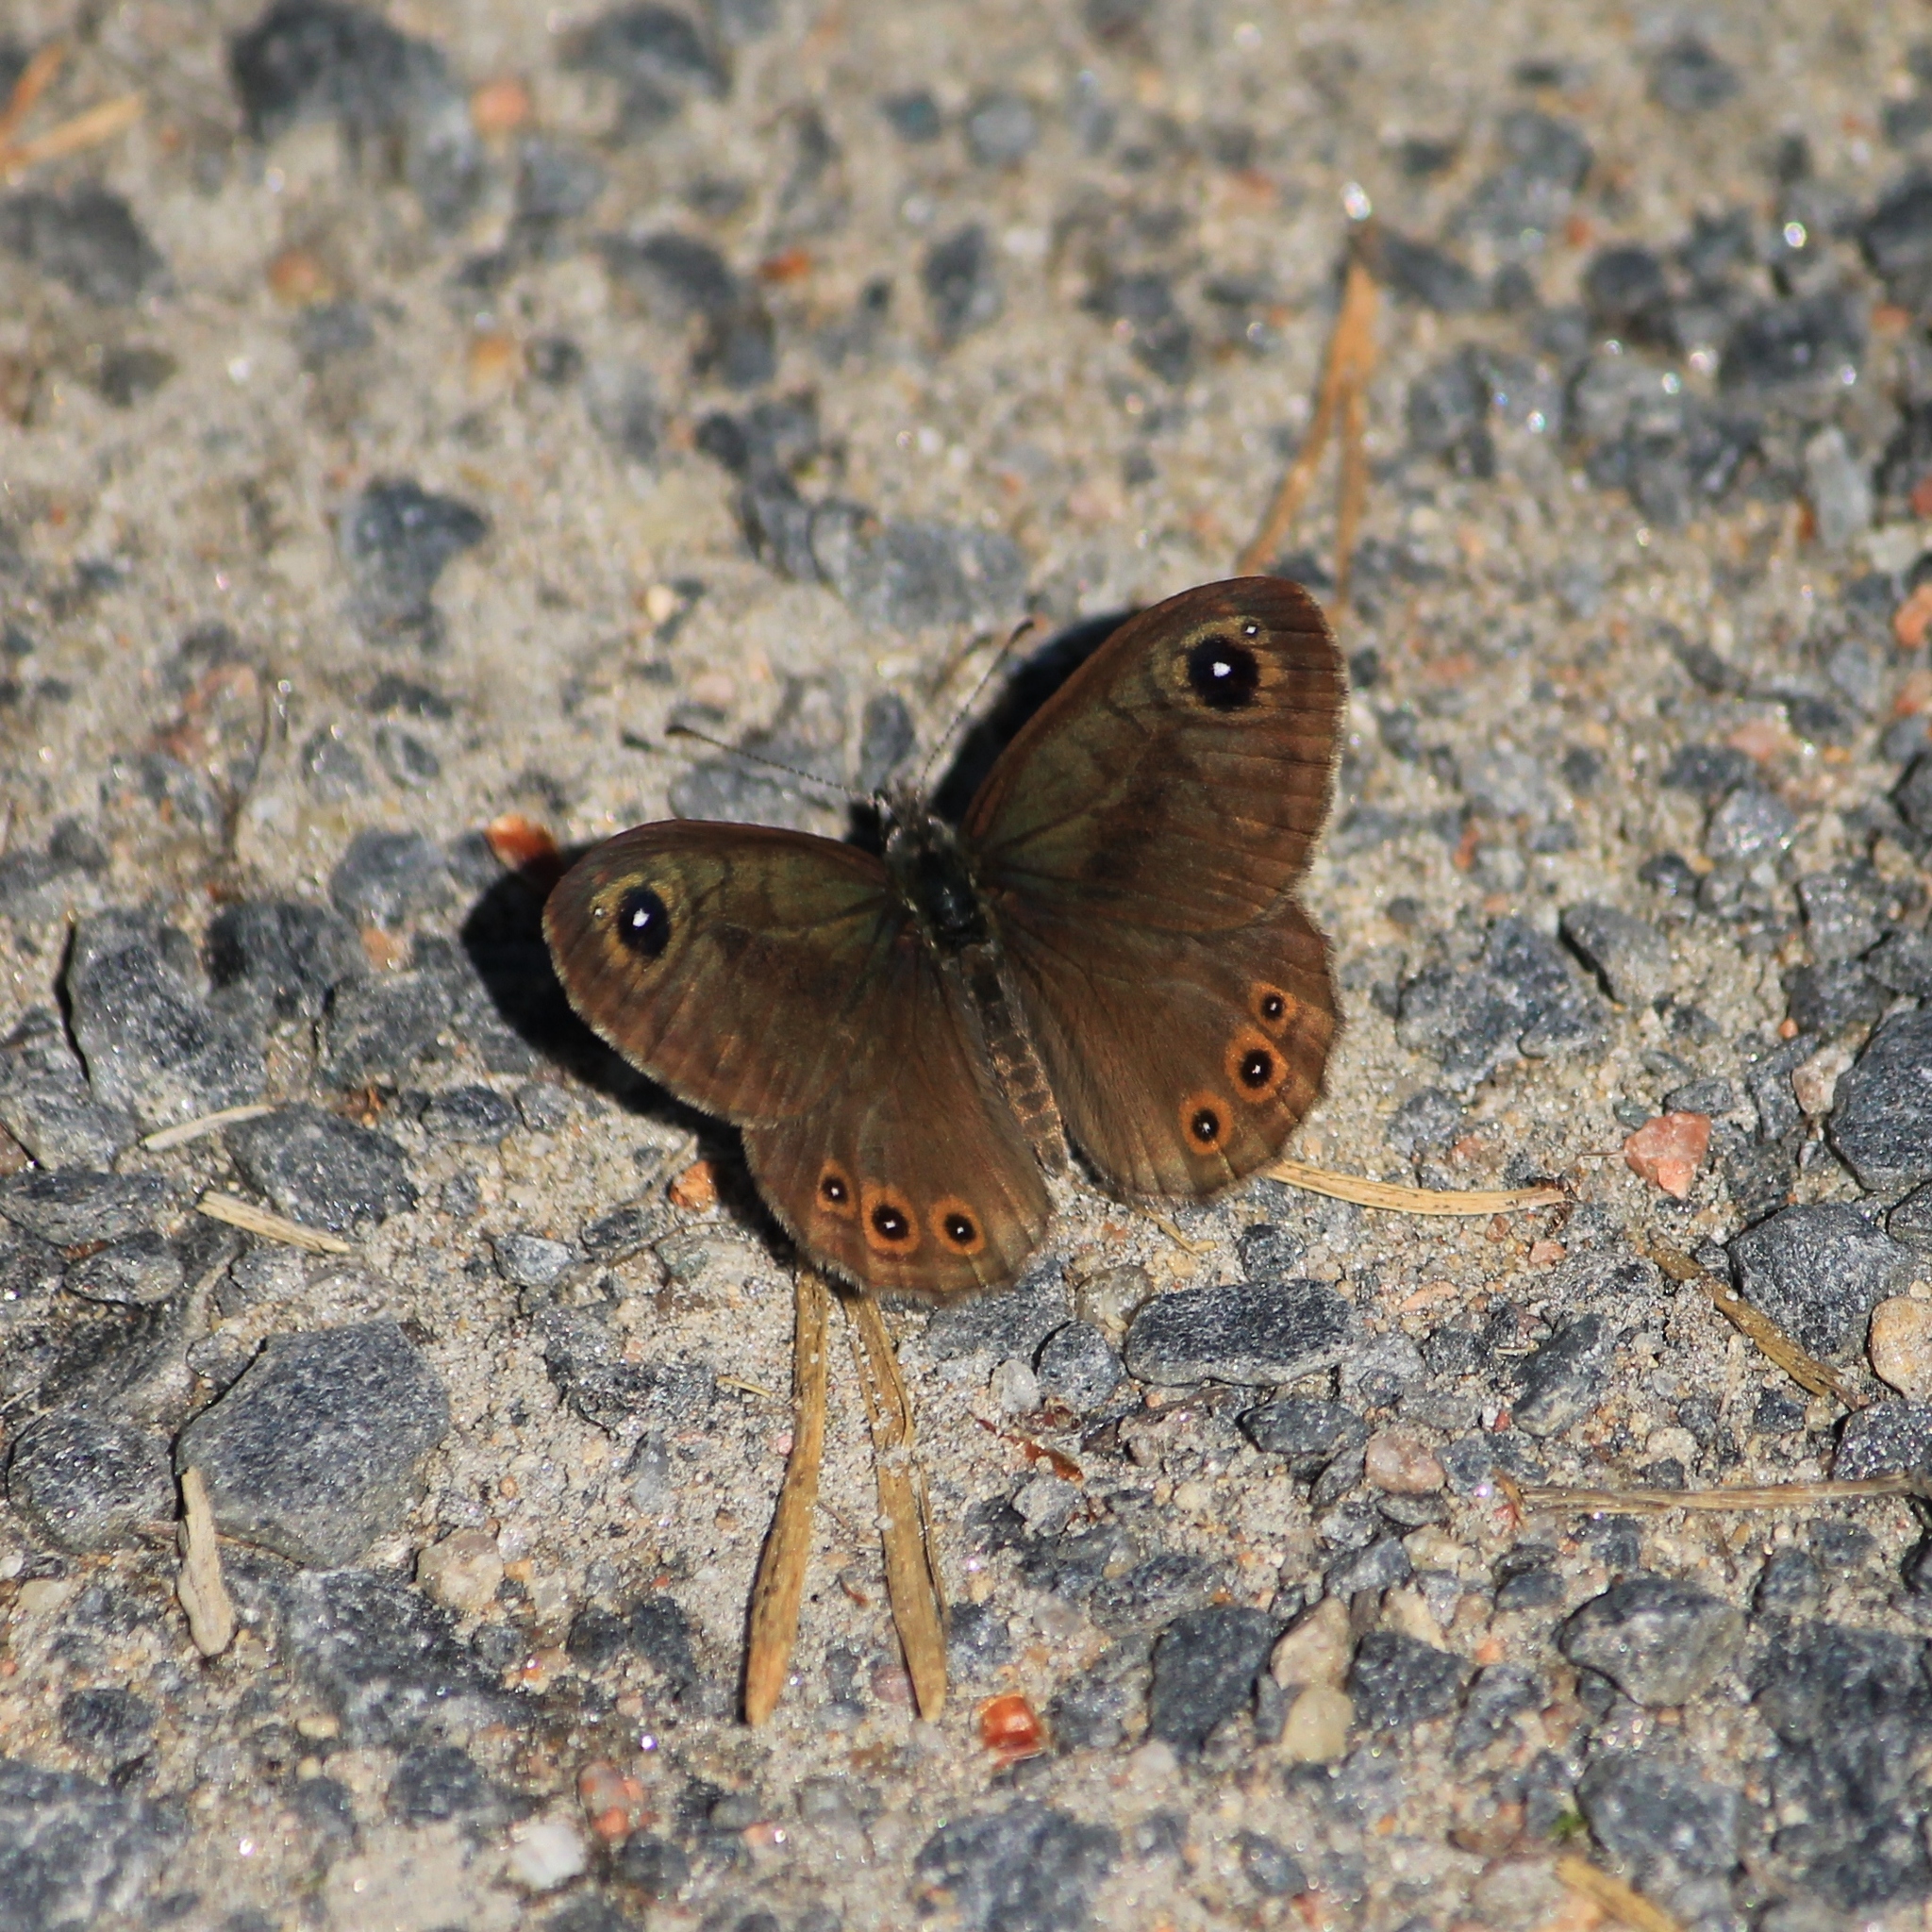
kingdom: Animalia
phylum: Arthropoda
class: Insecta
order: Lepidoptera
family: Nymphalidae
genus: Pararge
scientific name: Pararge petropolitana
